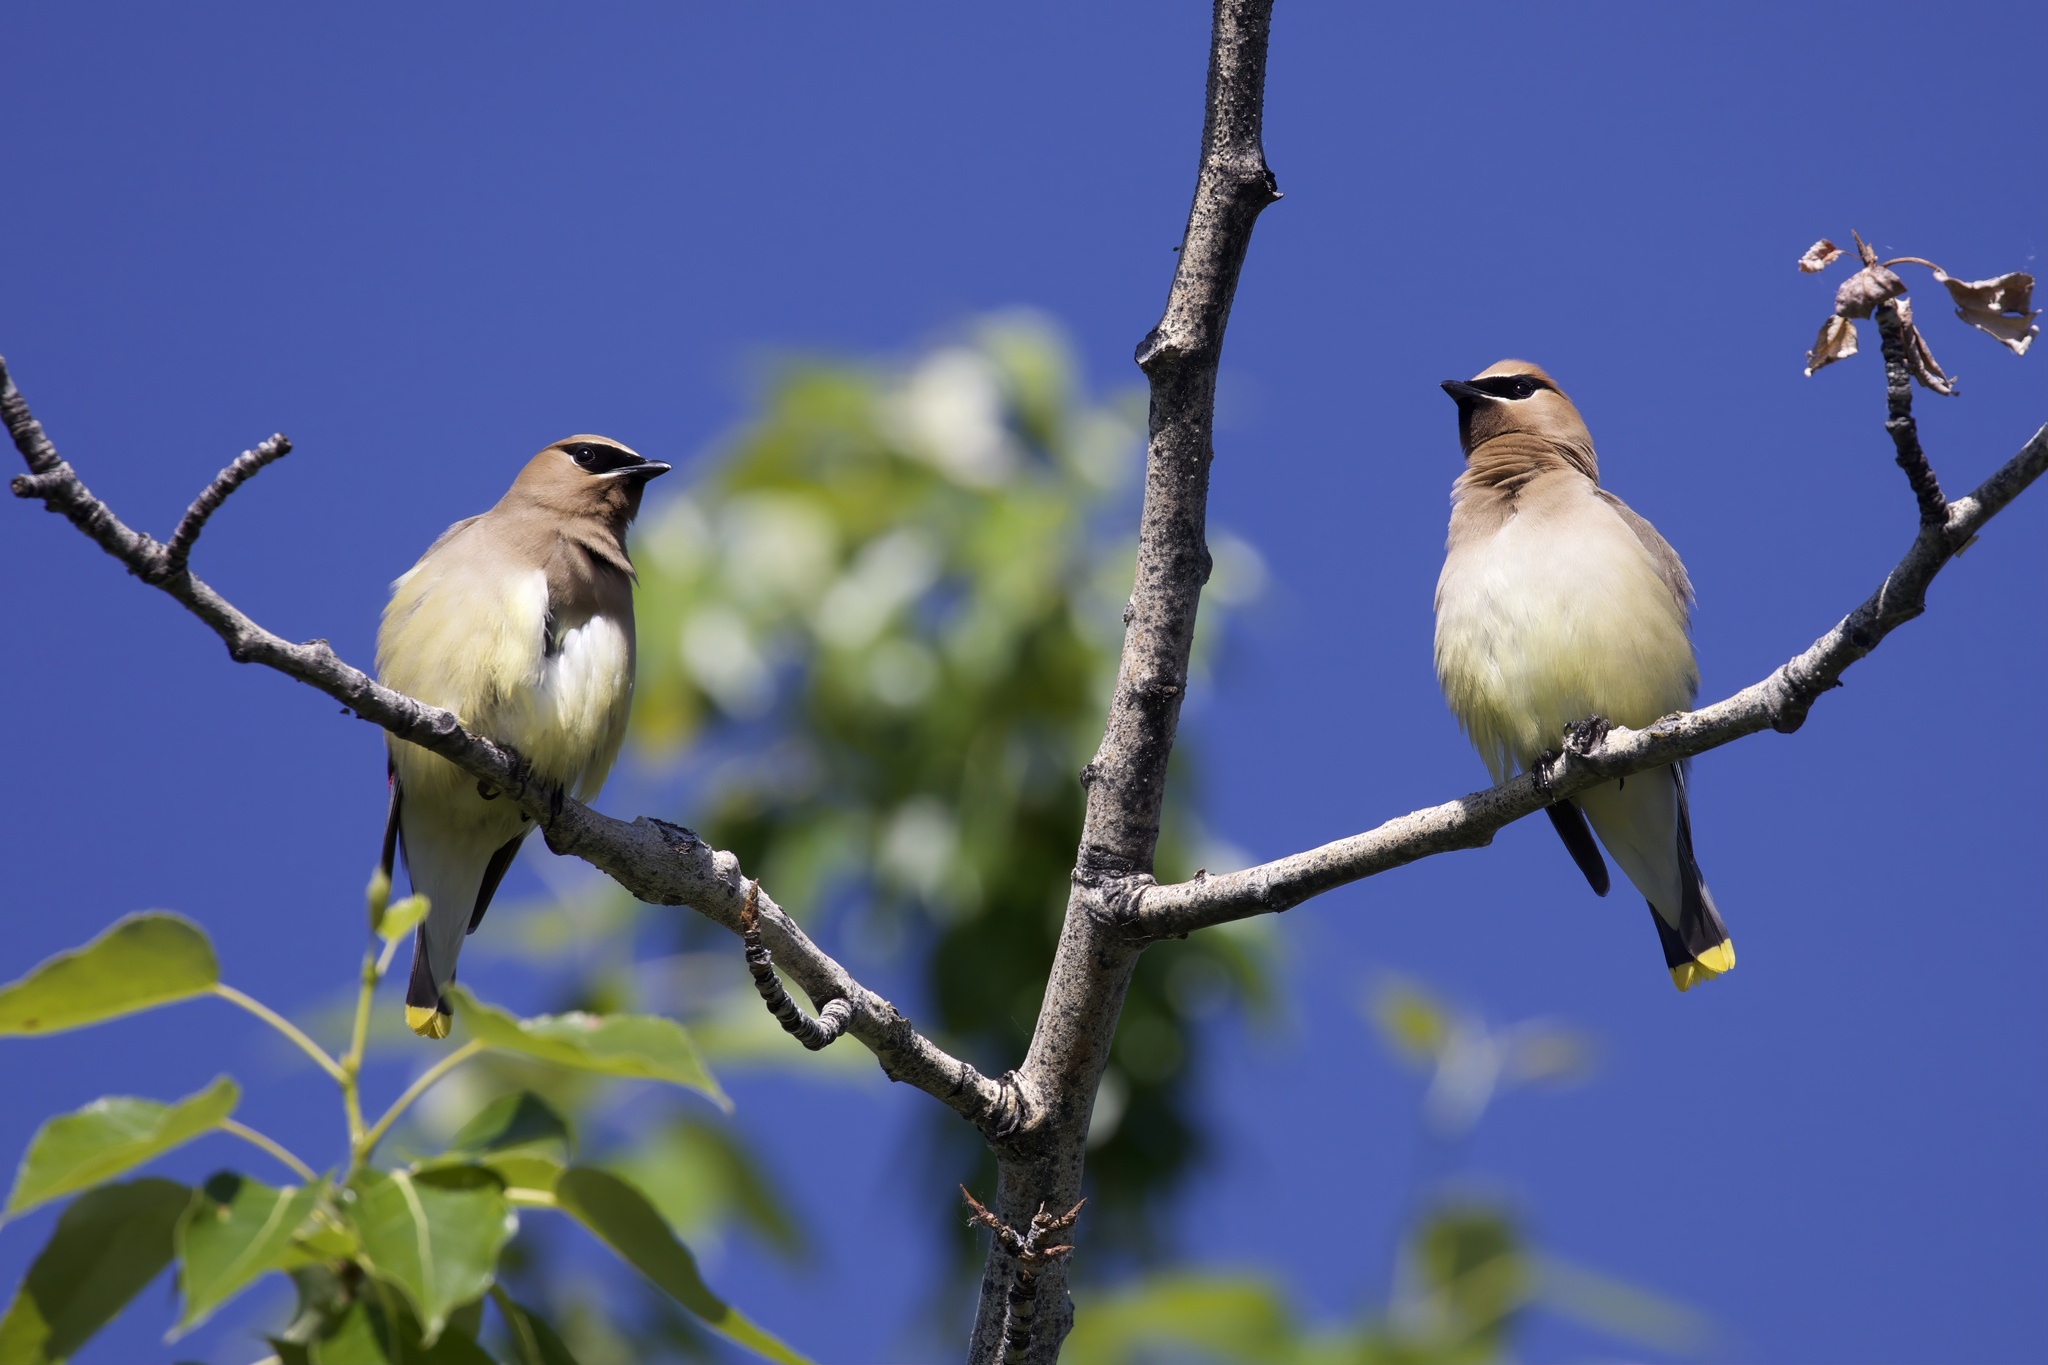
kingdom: Animalia
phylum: Chordata
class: Aves
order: Passeriformes
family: Bombycillidae
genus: Bombycilla
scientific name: Bombycilla cedrorum
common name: Cedar waxwing
